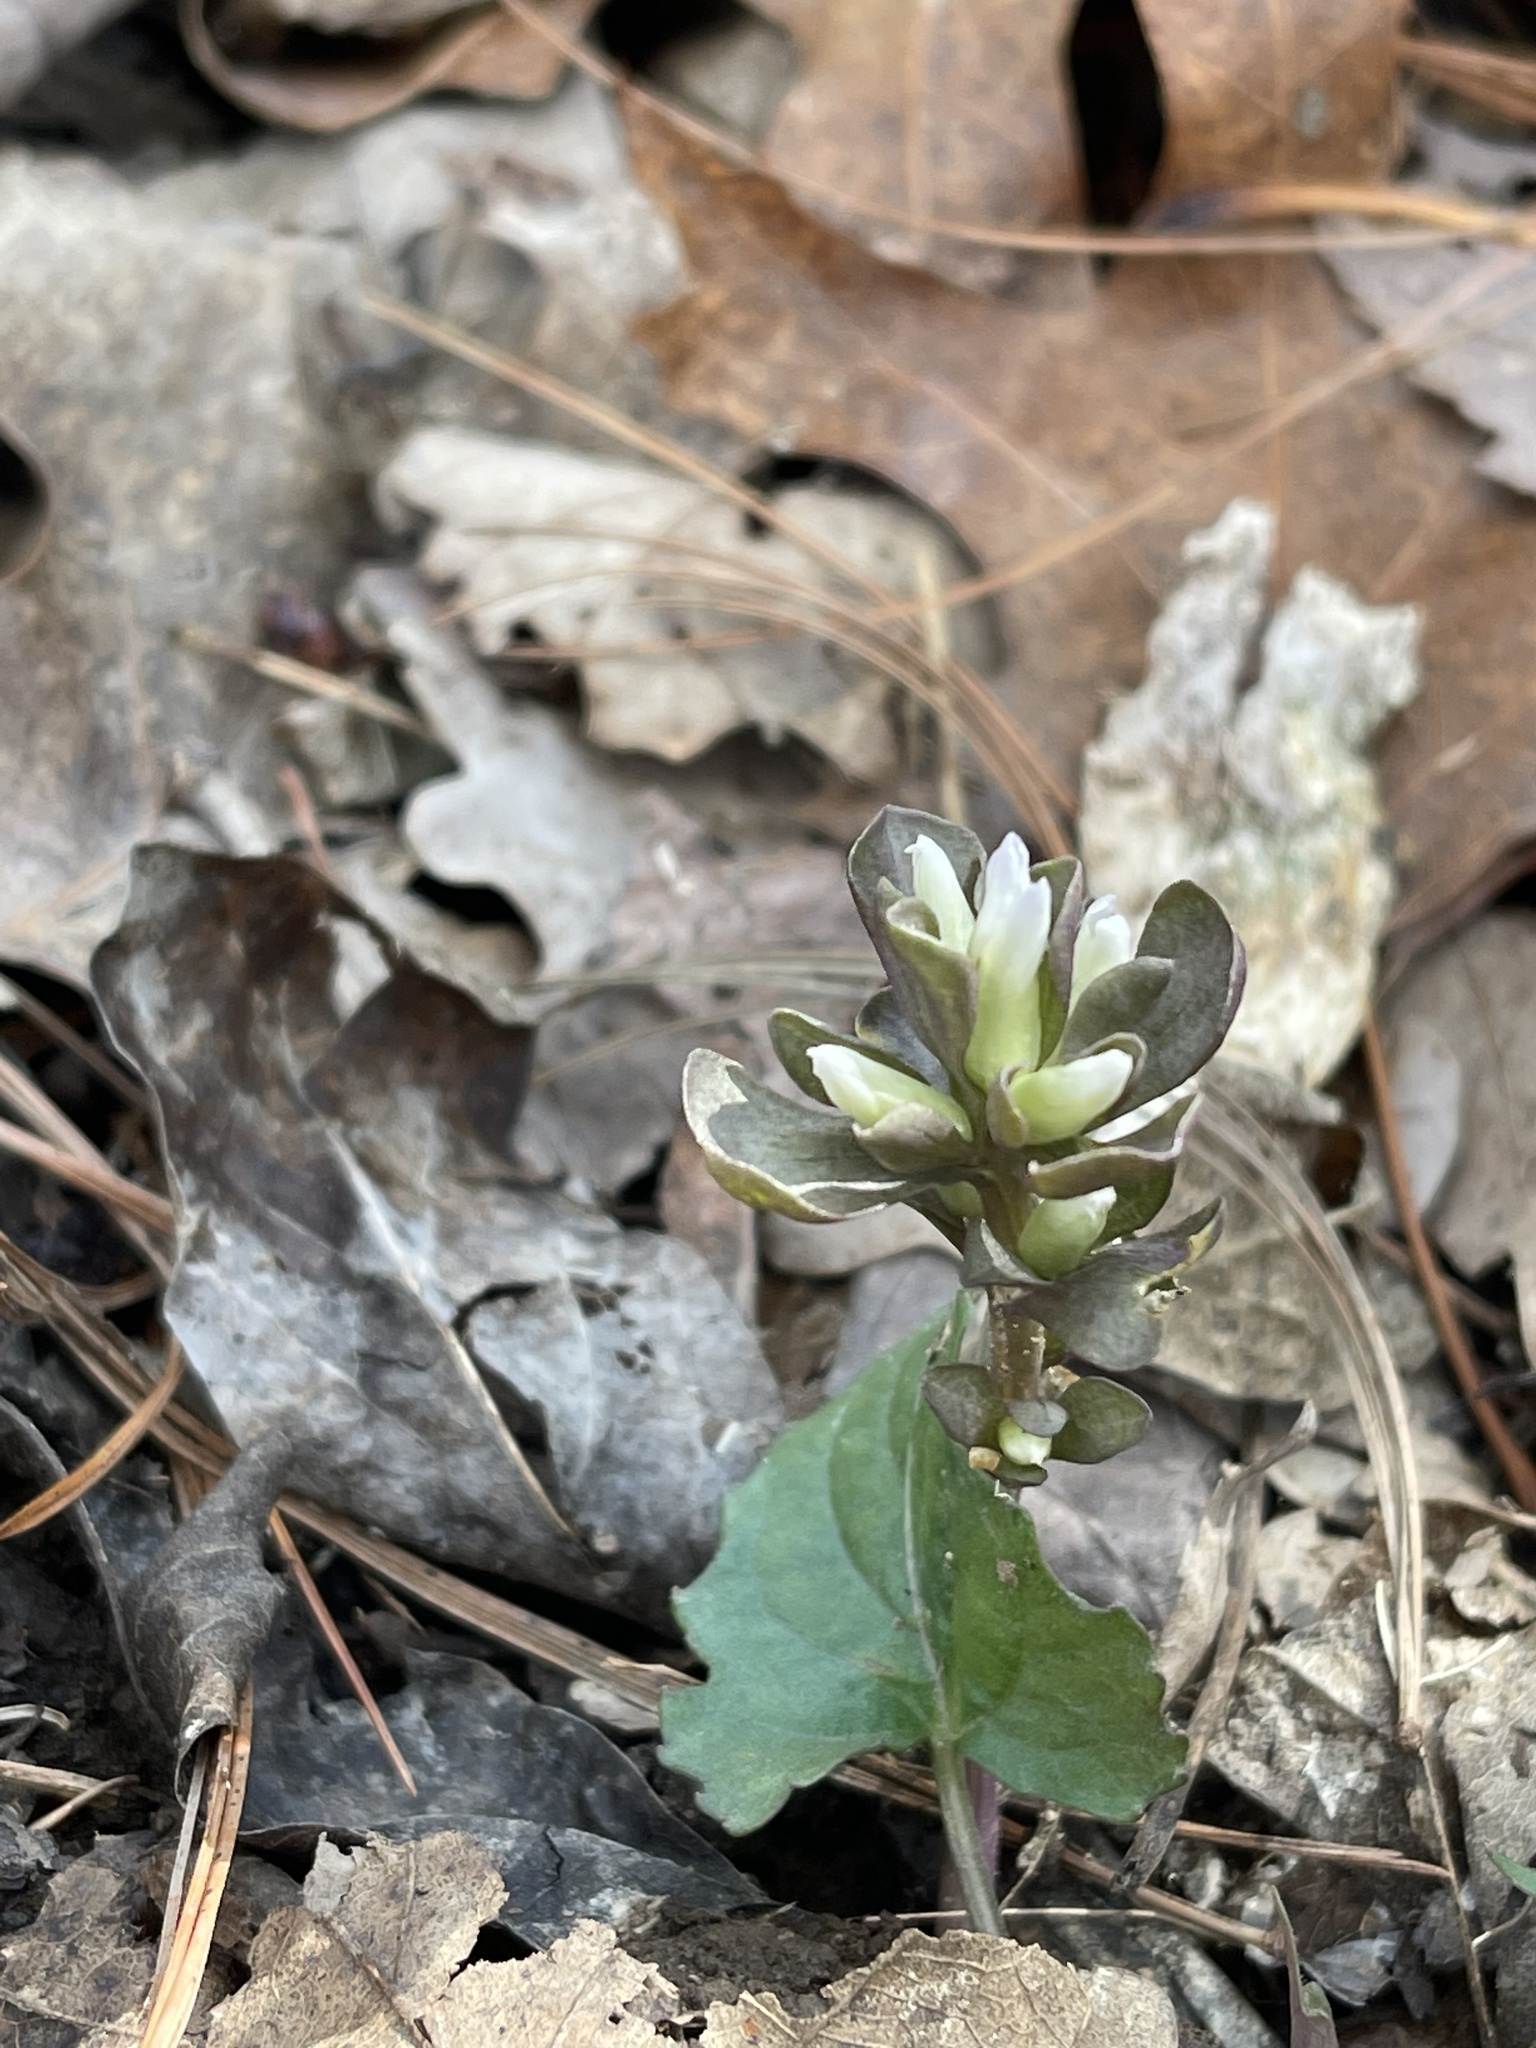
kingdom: Plantae
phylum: Tracheophyta
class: Magnoliopsida
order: Gentianales
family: Gentianaceae
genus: Obolaria
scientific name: Obolaria virginica
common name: Pennywort
